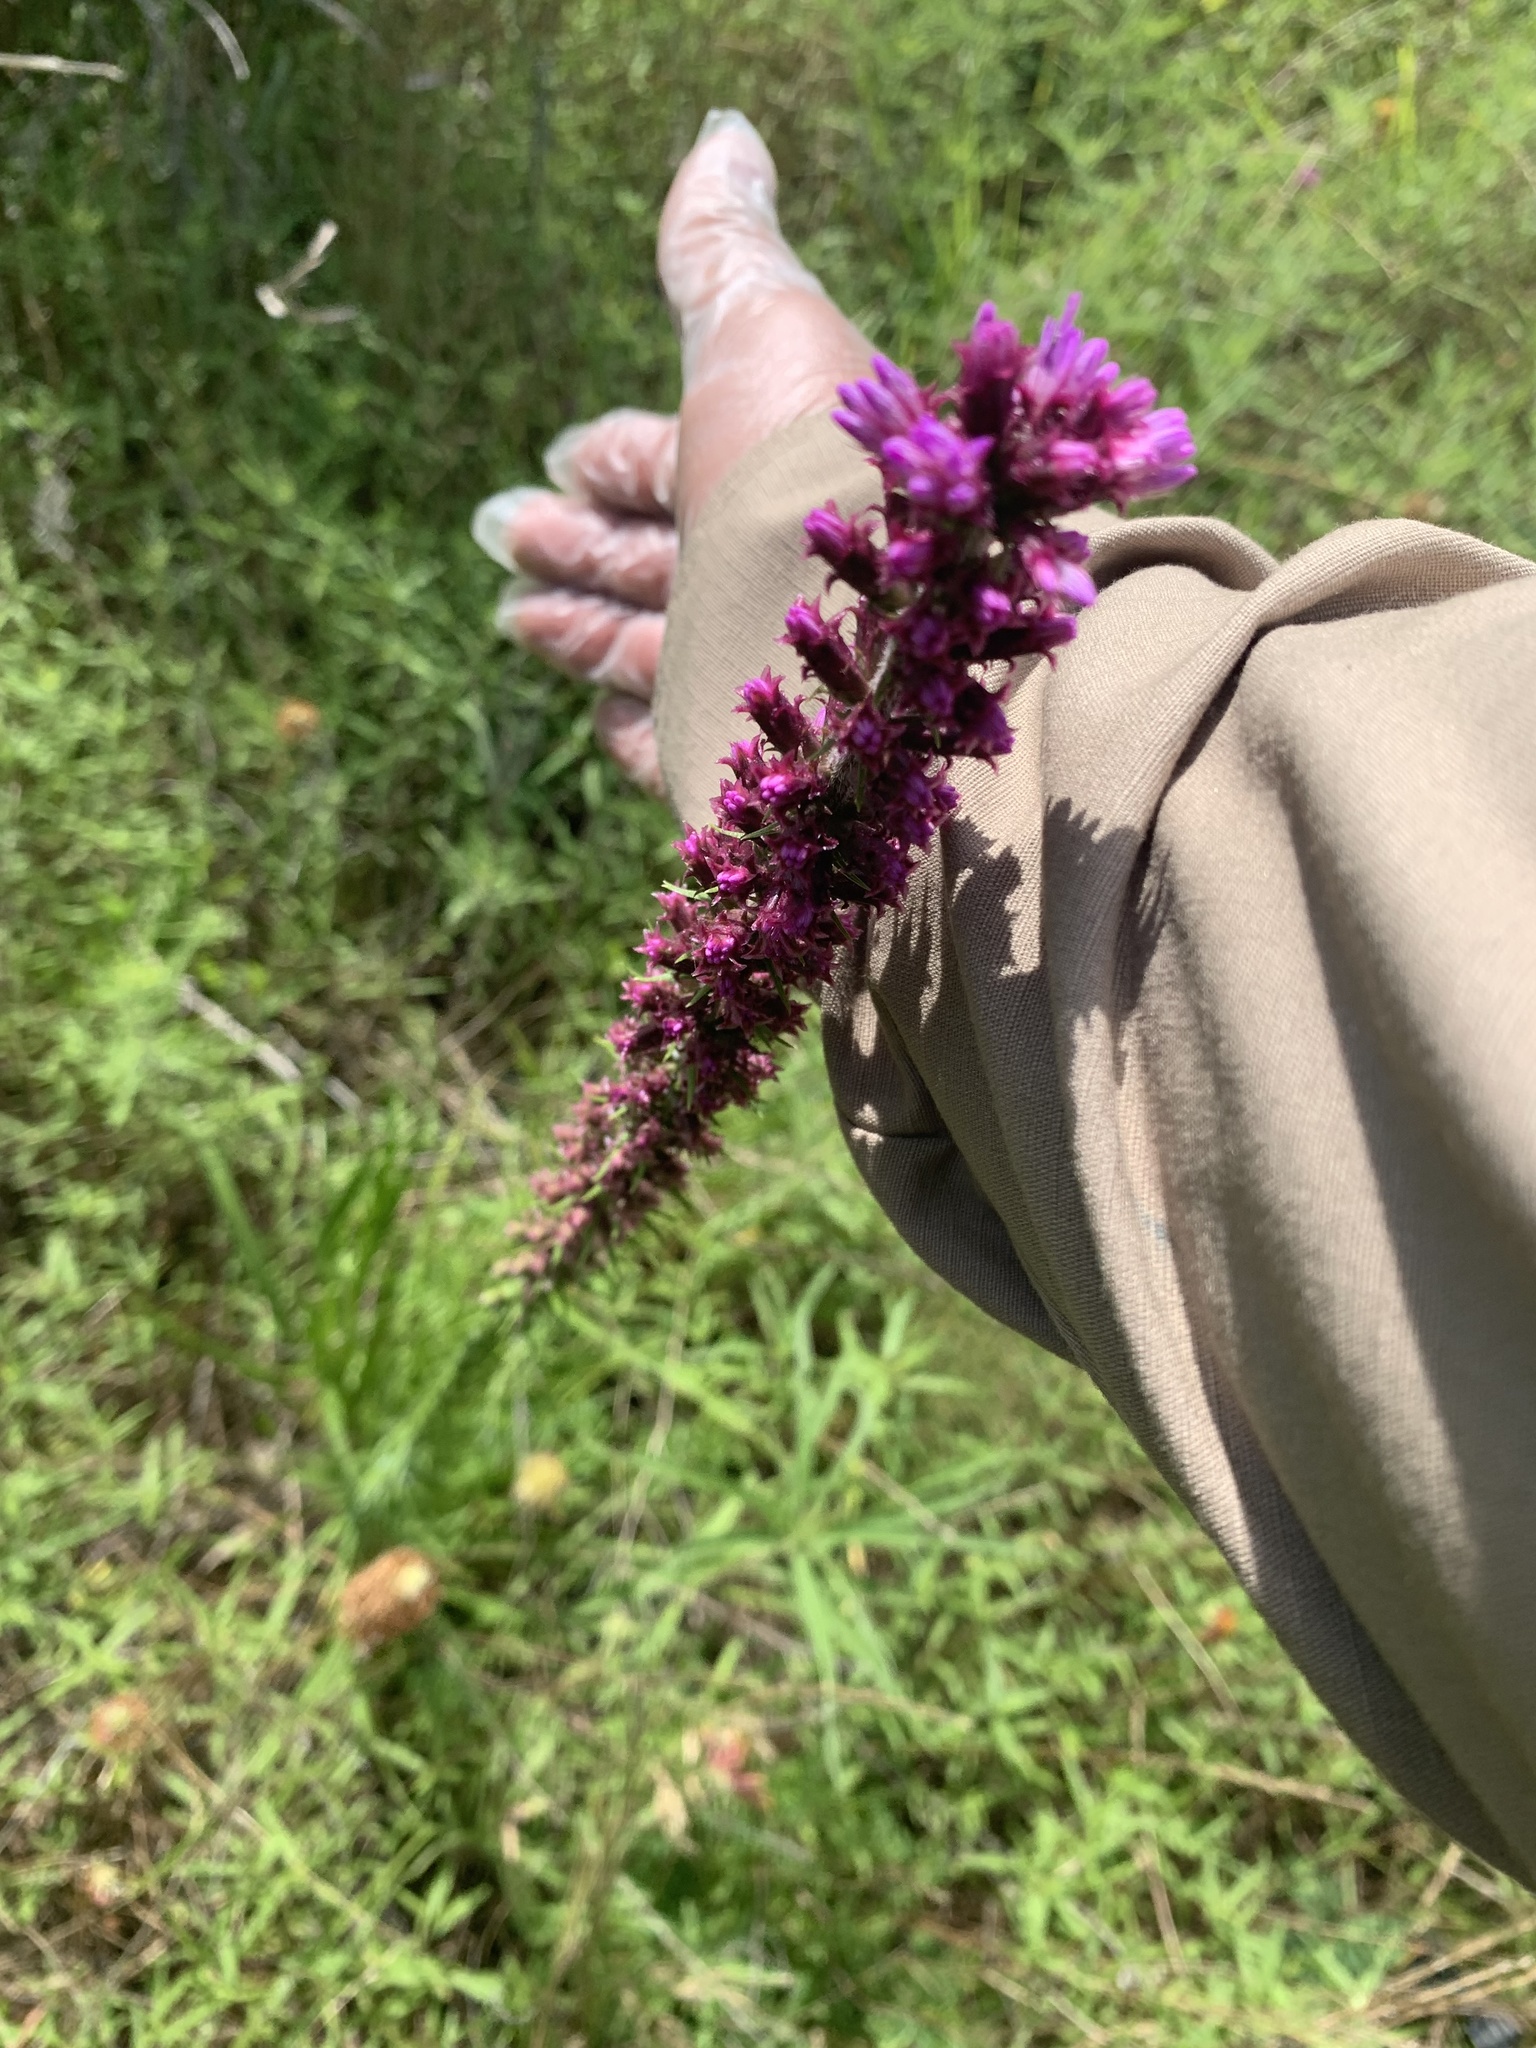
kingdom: Plantae
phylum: Tracheophyta
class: Magnoliopsida
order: Asterales
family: Asteraceae
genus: Liatris
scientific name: Liatris pycnostachya
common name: Cattail gayfeather
